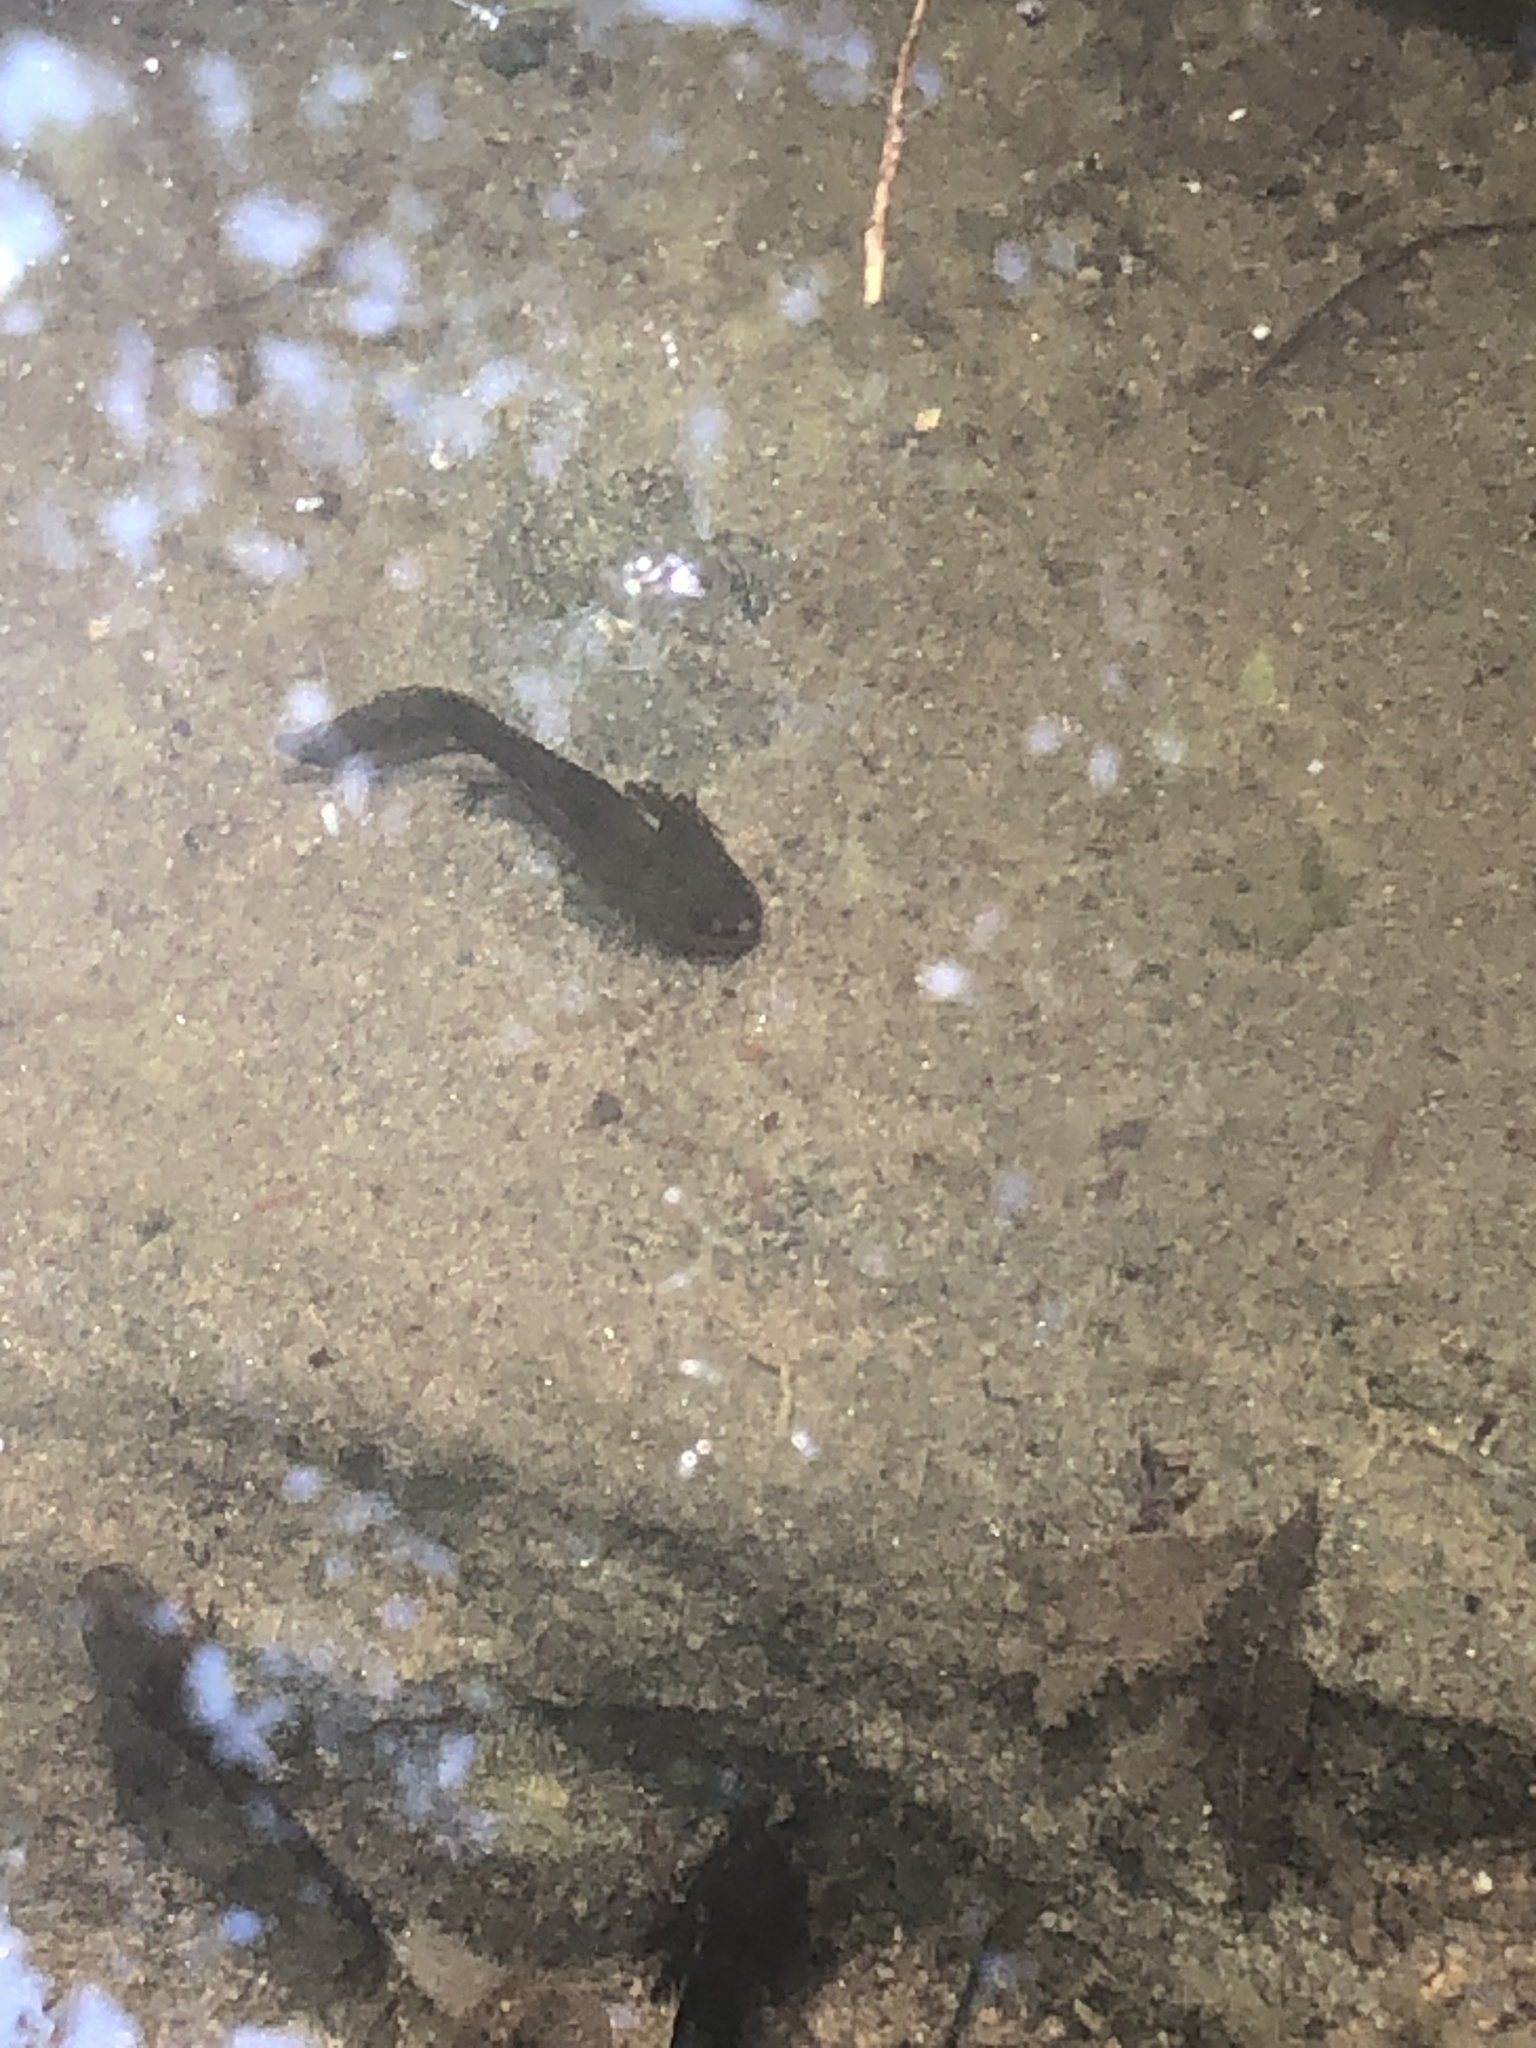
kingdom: Animalia
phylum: Chordata
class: Amphibia
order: Caudata
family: Ambystomatidae
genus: Ambystoma
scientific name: Ambystoma opacum
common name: Marbled salamander
